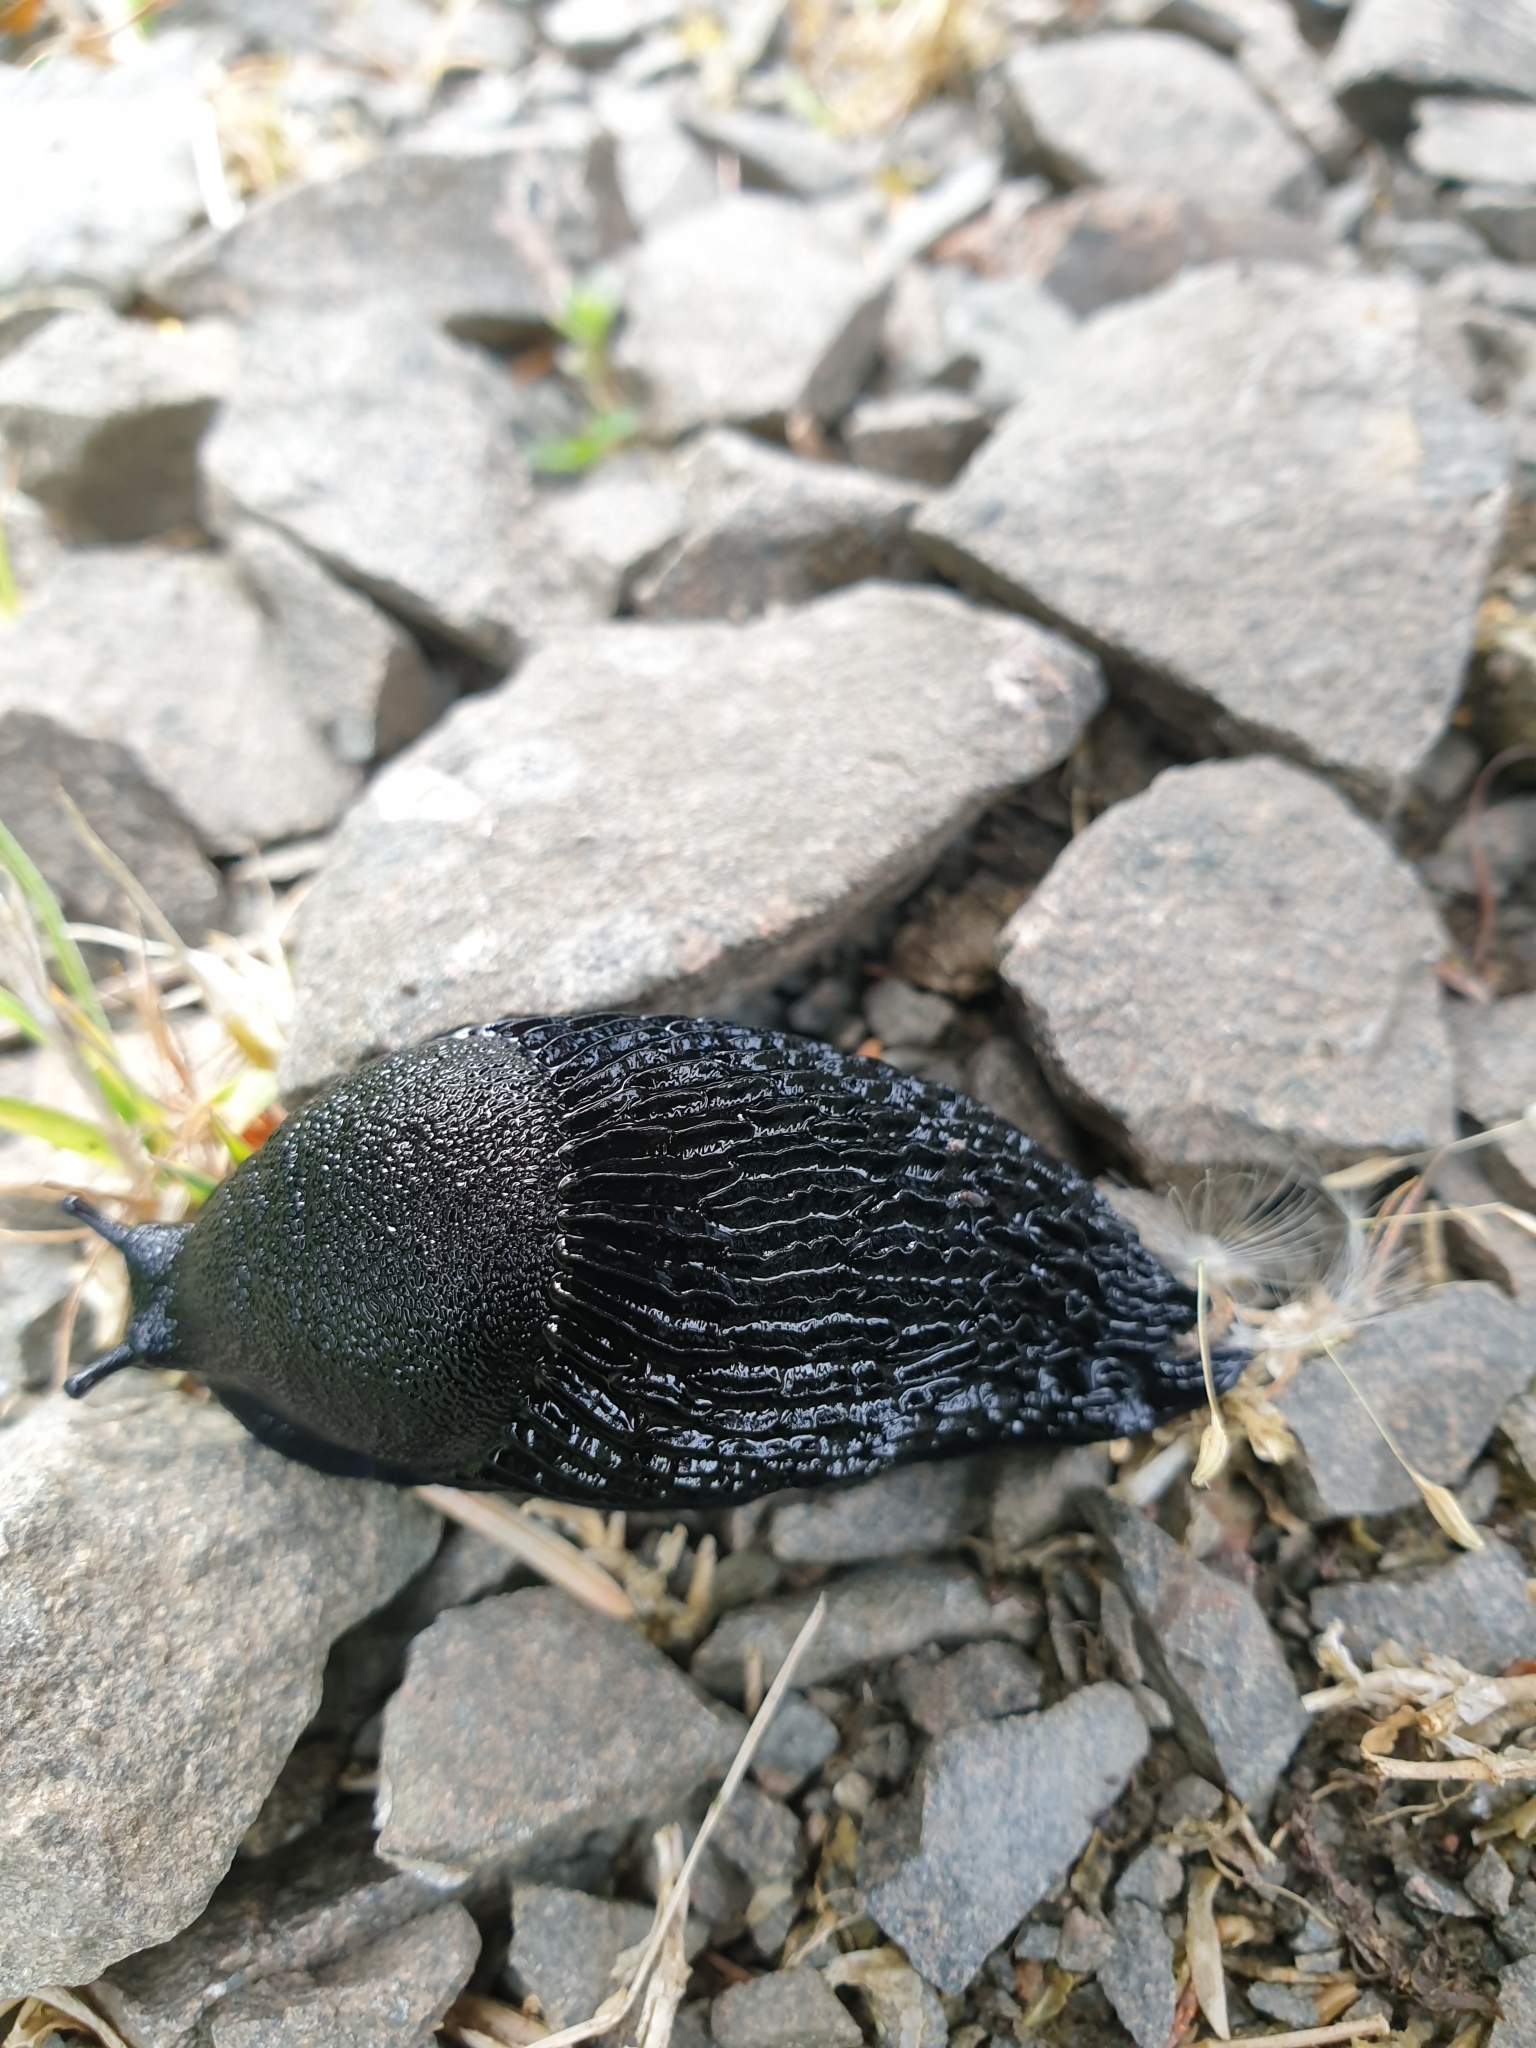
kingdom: Animalia
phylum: Mollusca
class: Gastropoda
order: Stylommatophora
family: Arionidae
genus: Arion
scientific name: Arion ater
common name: Black arion
